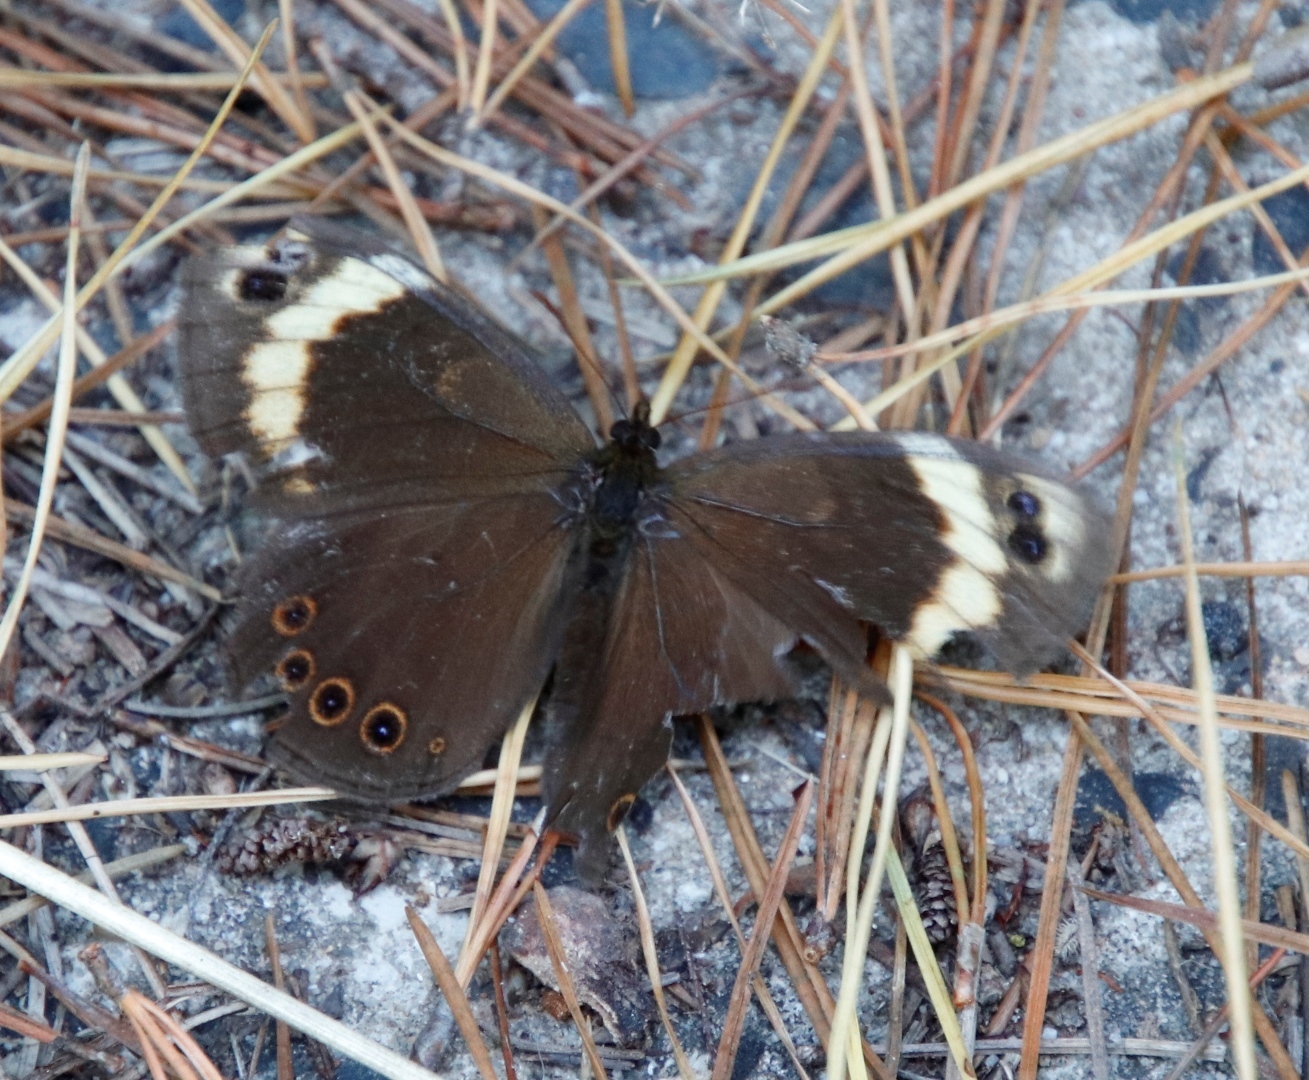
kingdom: Animalia
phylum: Arthropoda
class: Insecta
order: Lepidoptera
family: Nymphalidae
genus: Dira
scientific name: Dira clytus
